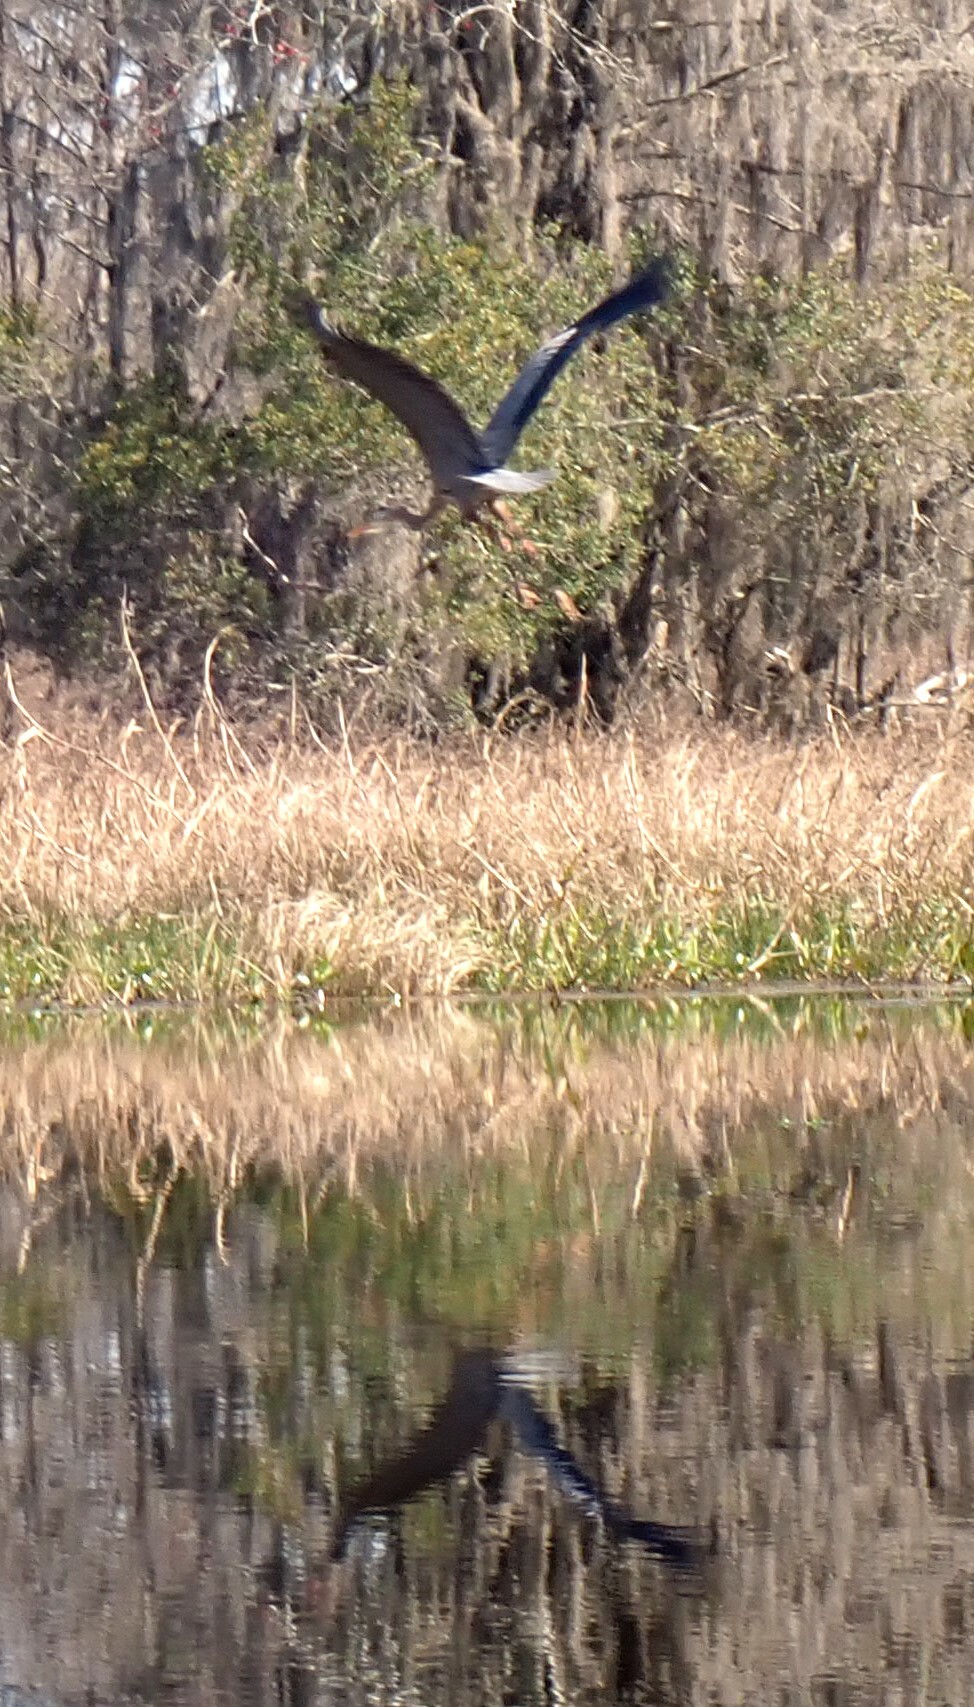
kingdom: Animalia
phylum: Chordata
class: Aves
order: Pelecaniformes
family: Ardeidae
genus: Ardea
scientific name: Ardea herodias
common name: Great blue heron
